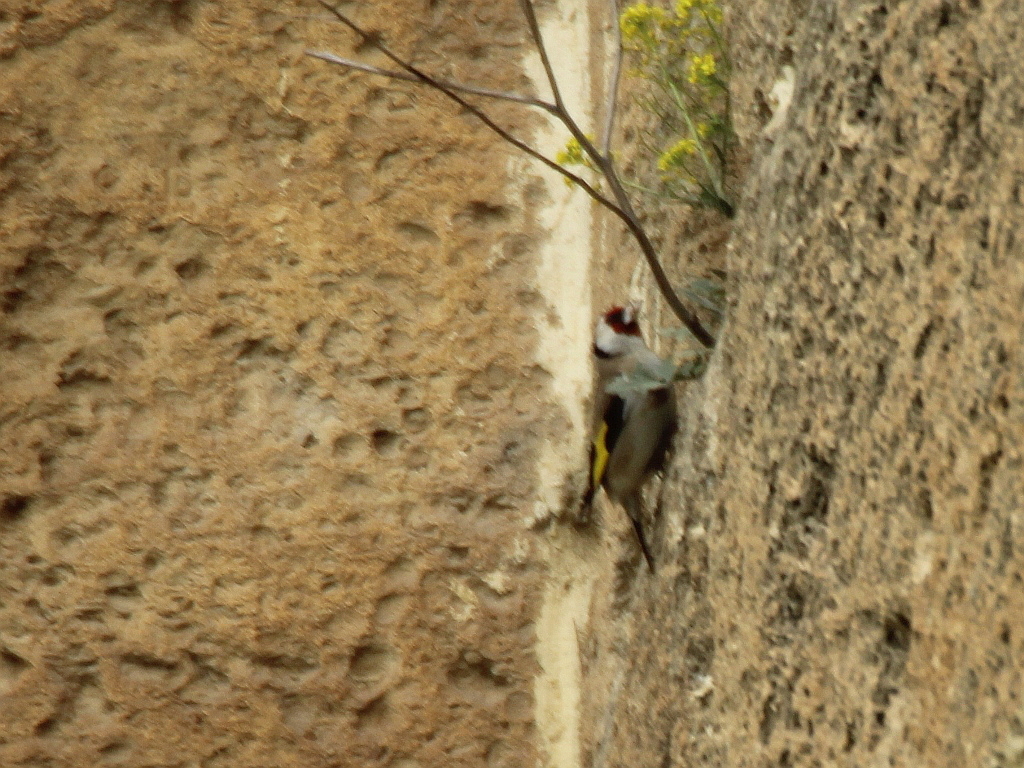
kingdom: Animalia
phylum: Chordata
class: Aves
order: Passeriformes
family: Fringillidae
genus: Carduelis
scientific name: Carduelis carduelis
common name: European goldfinch
